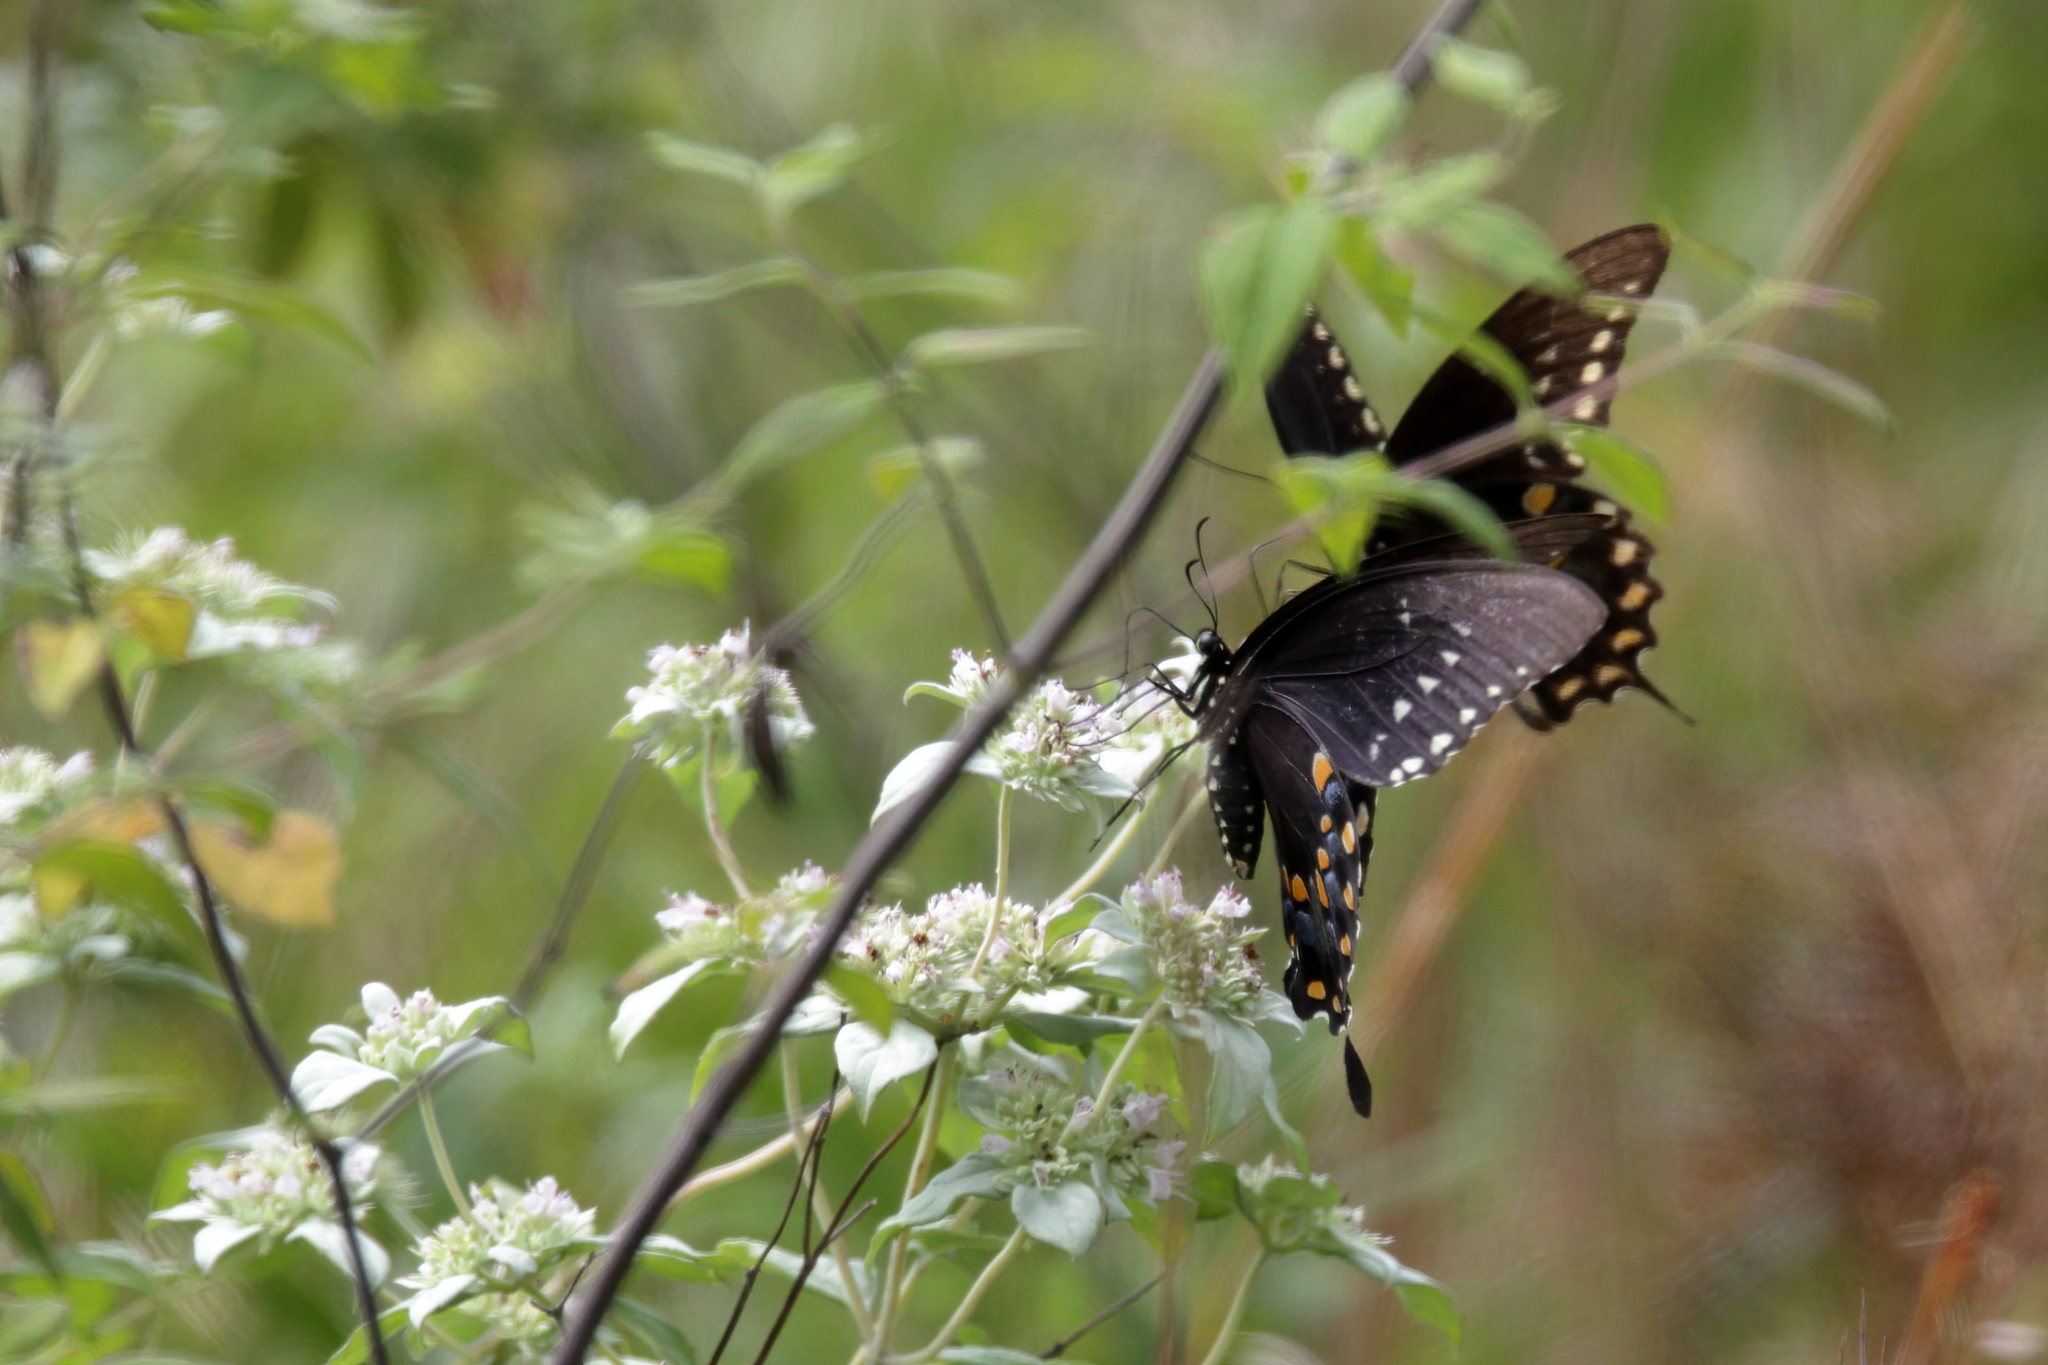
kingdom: Animalia
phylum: Arthropoda
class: Insecta
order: Lepidoptera
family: Papilionidae
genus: Papilio
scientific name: Papilio troilus
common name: Spicebush swallowtail
